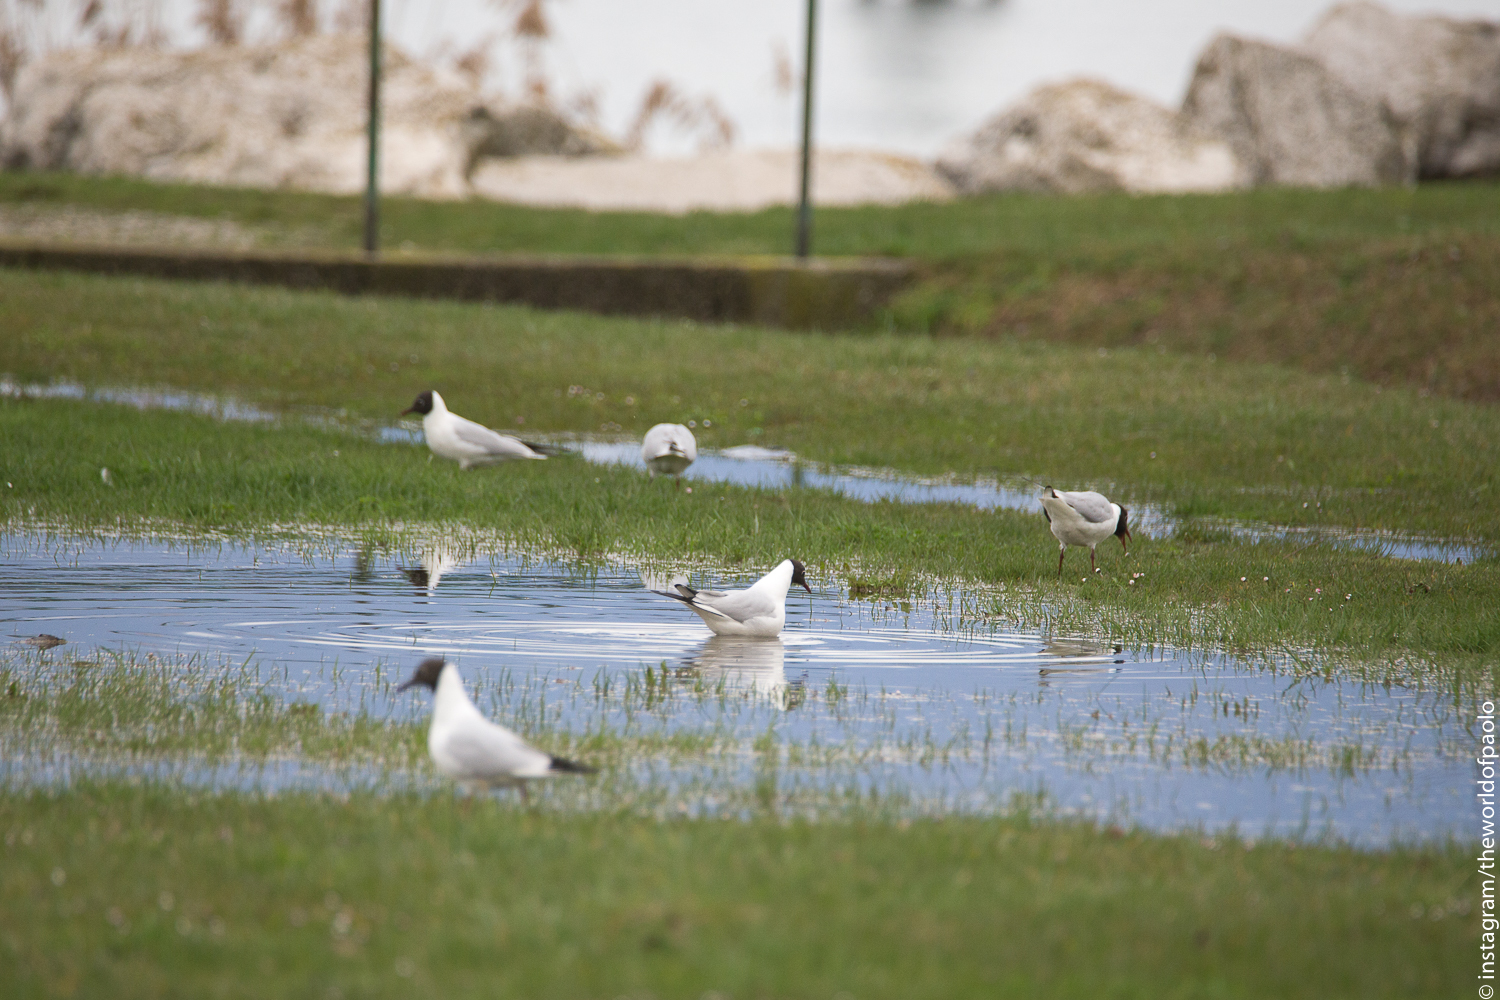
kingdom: Animalia
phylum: Chordata
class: Aves
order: Charadriiformes
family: Laridae
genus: Chroicocephalus
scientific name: Chroicocephalus ridibundus
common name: Black-headed gull
